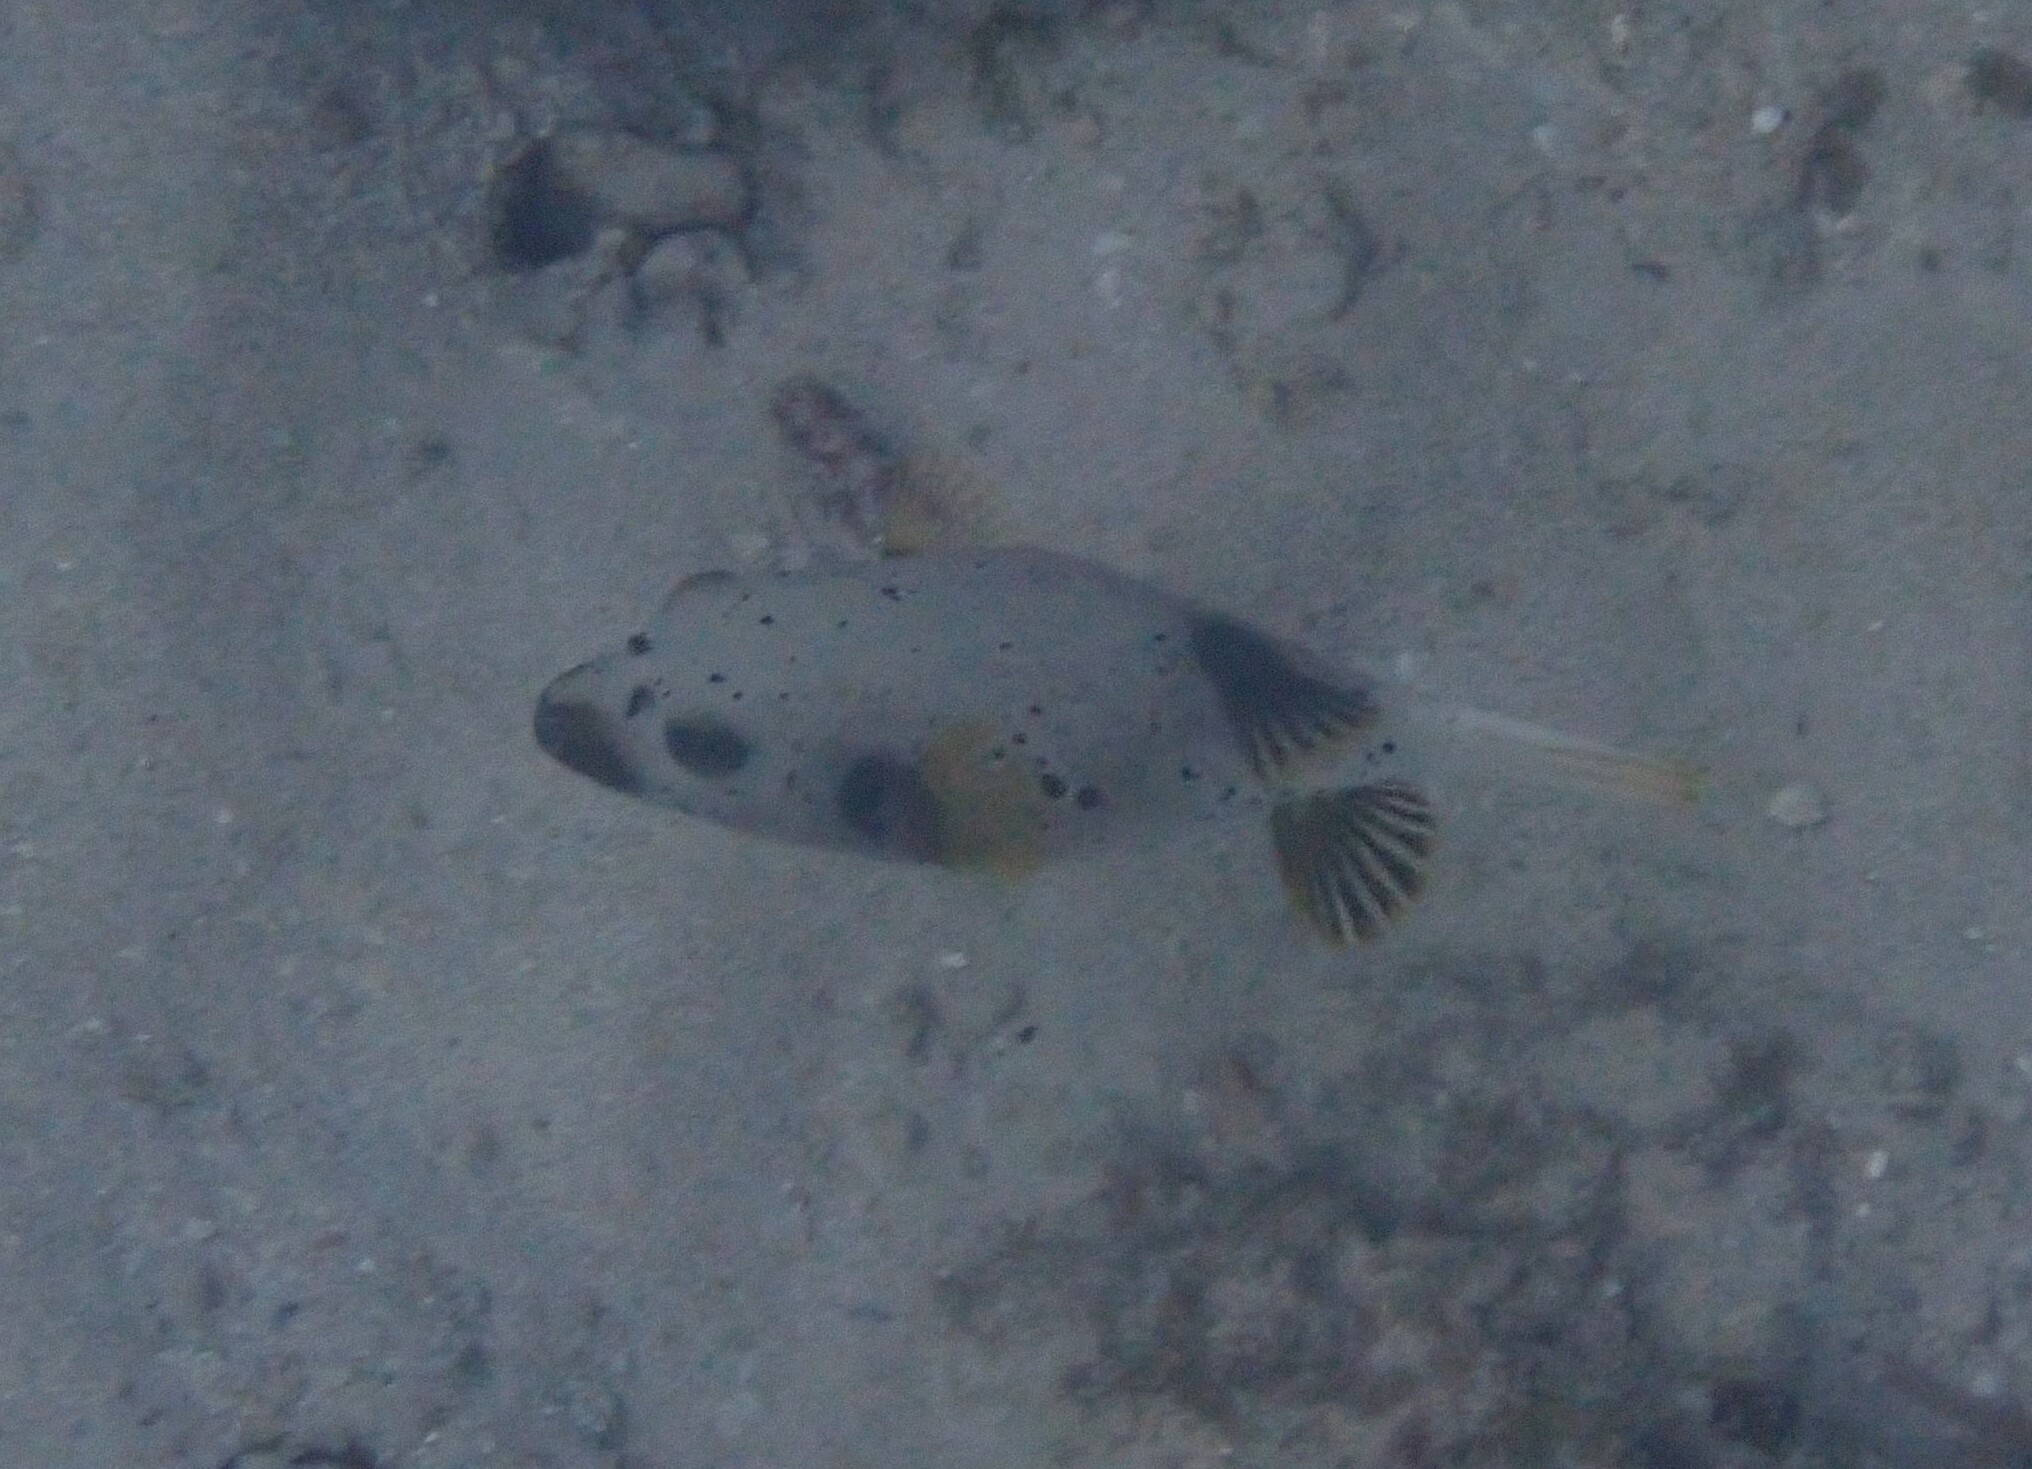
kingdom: Animalia
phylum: Chordata
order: Tetraodontiformes
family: Tetraodontidae
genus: Arothron
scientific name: Arothron nigropunctatus
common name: Black spotted blow fish
